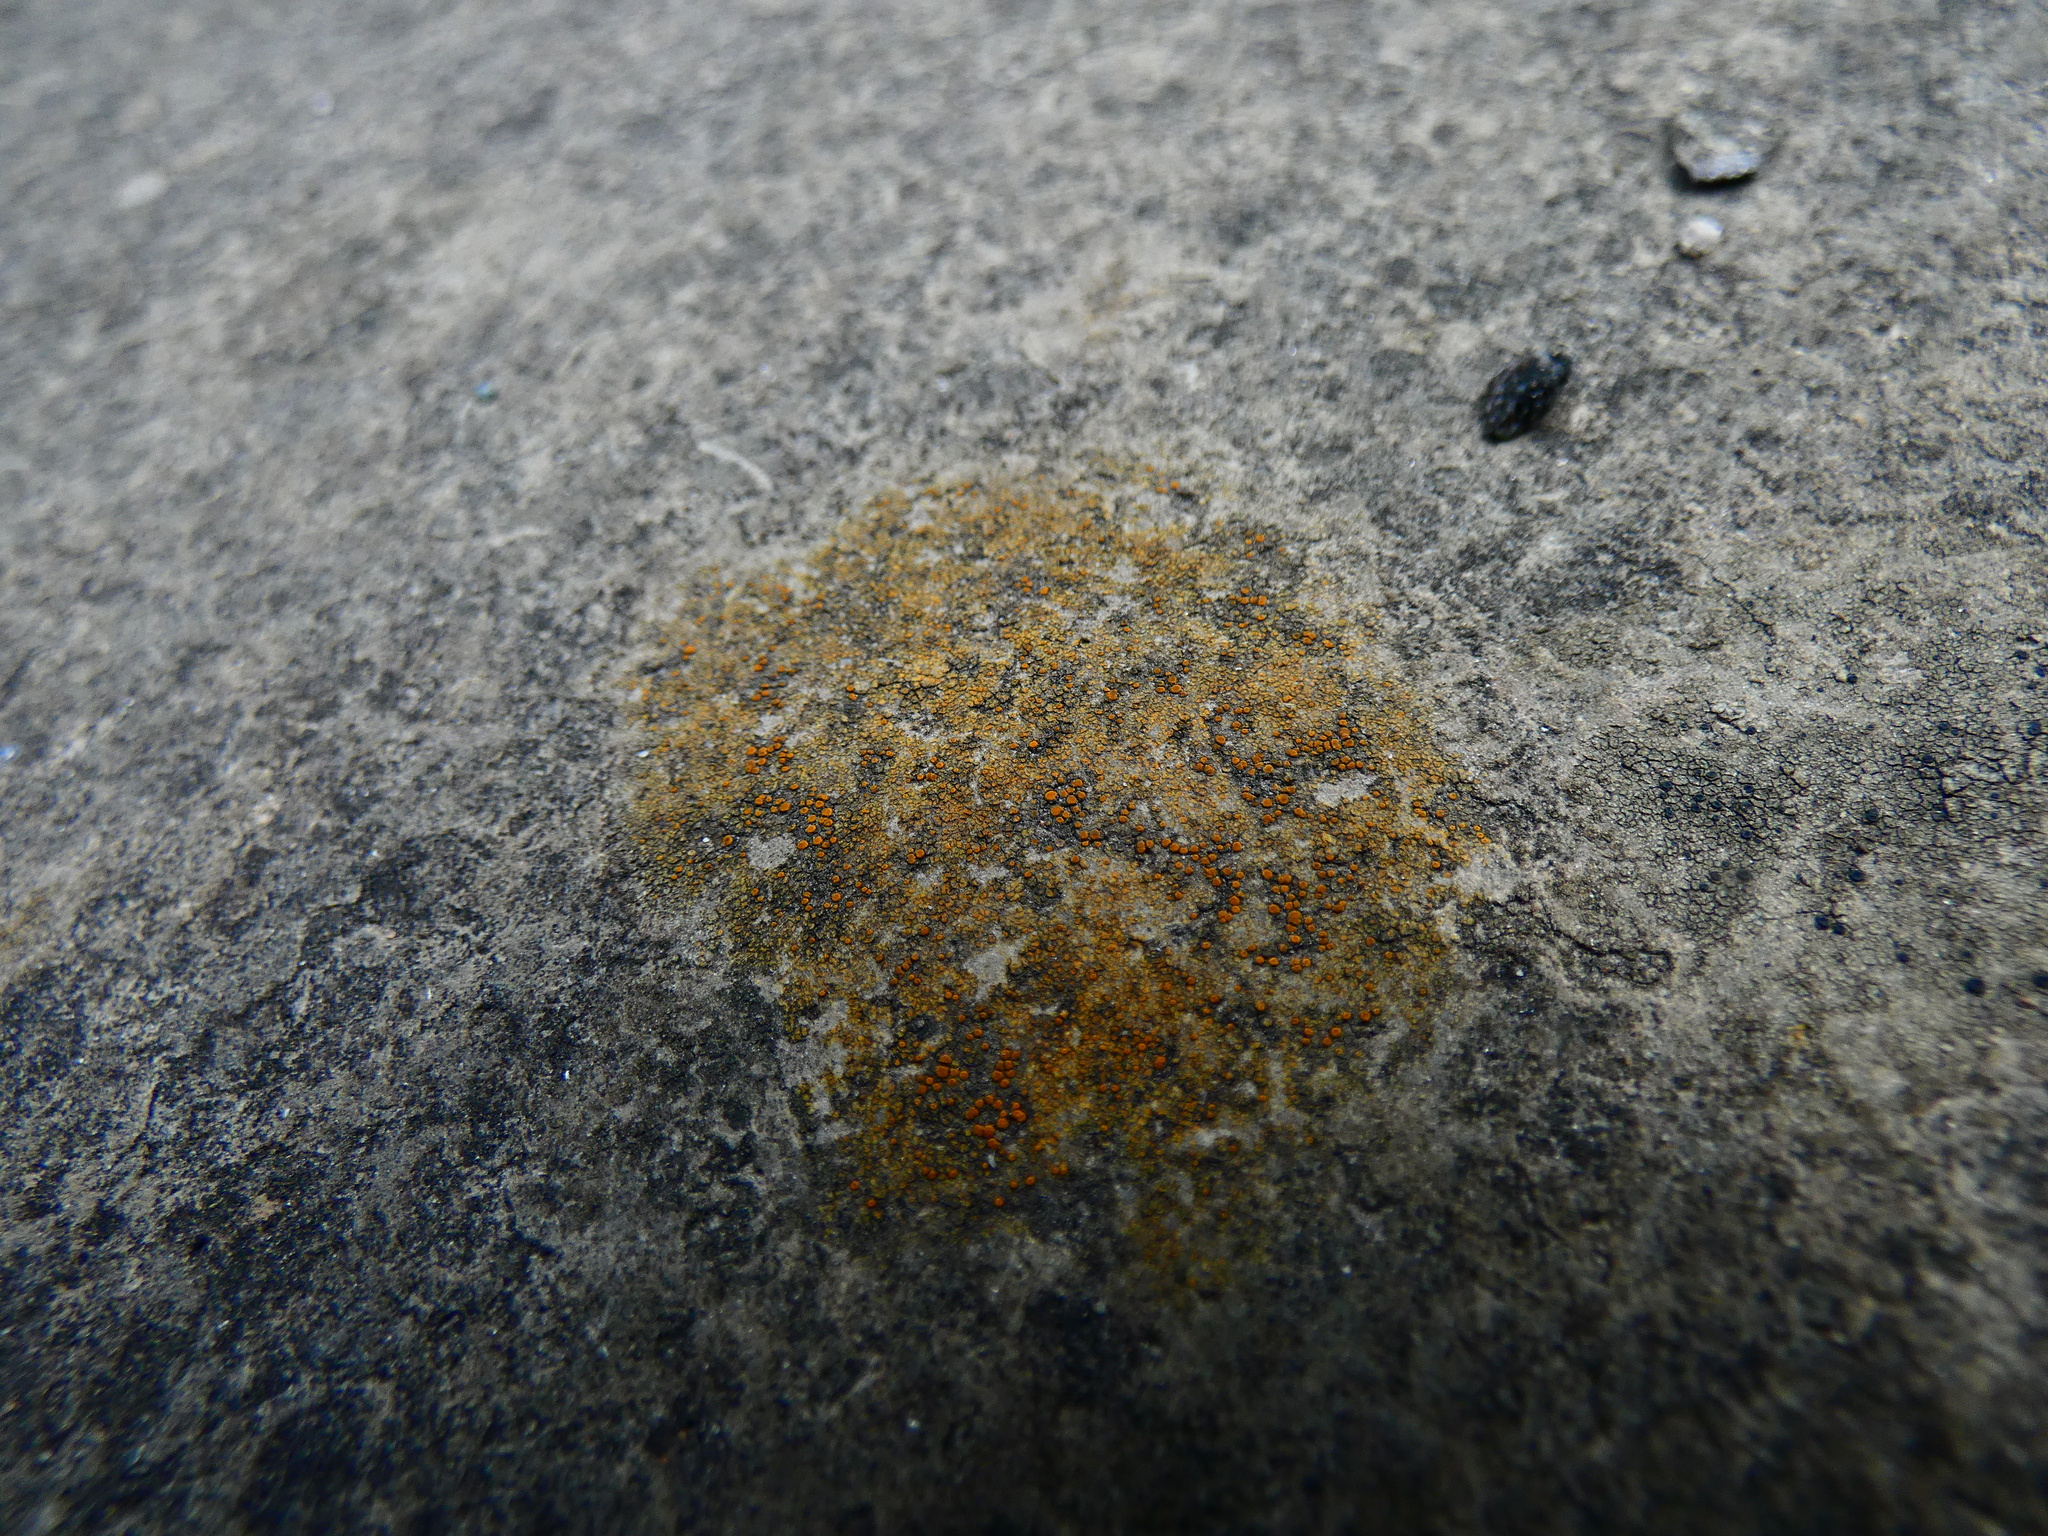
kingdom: Fungi
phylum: Ascomycota
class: Lecanoromycetes
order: Teloschistales
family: Teloschistaceae
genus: Gyalolechia
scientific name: Gyalolechia flavovirescens
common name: Sulphur firedot
